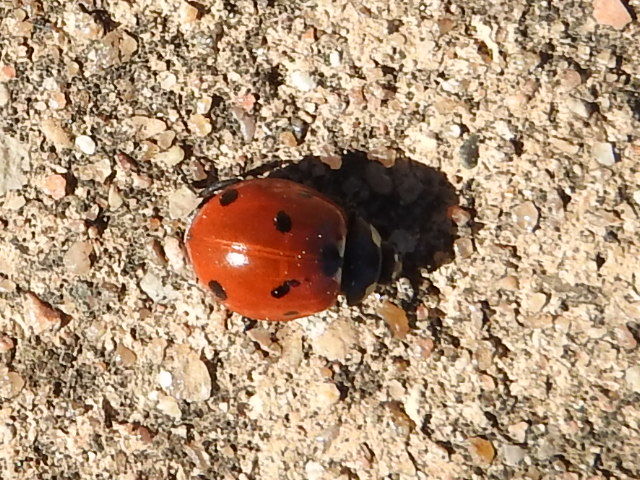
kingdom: Animalia
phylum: Arthropoda
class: Insecta
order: Coleoptera
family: Coccinellidae
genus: Coccinella
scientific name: Coccinella septempunctata
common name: Sevenspotted lady beetle
